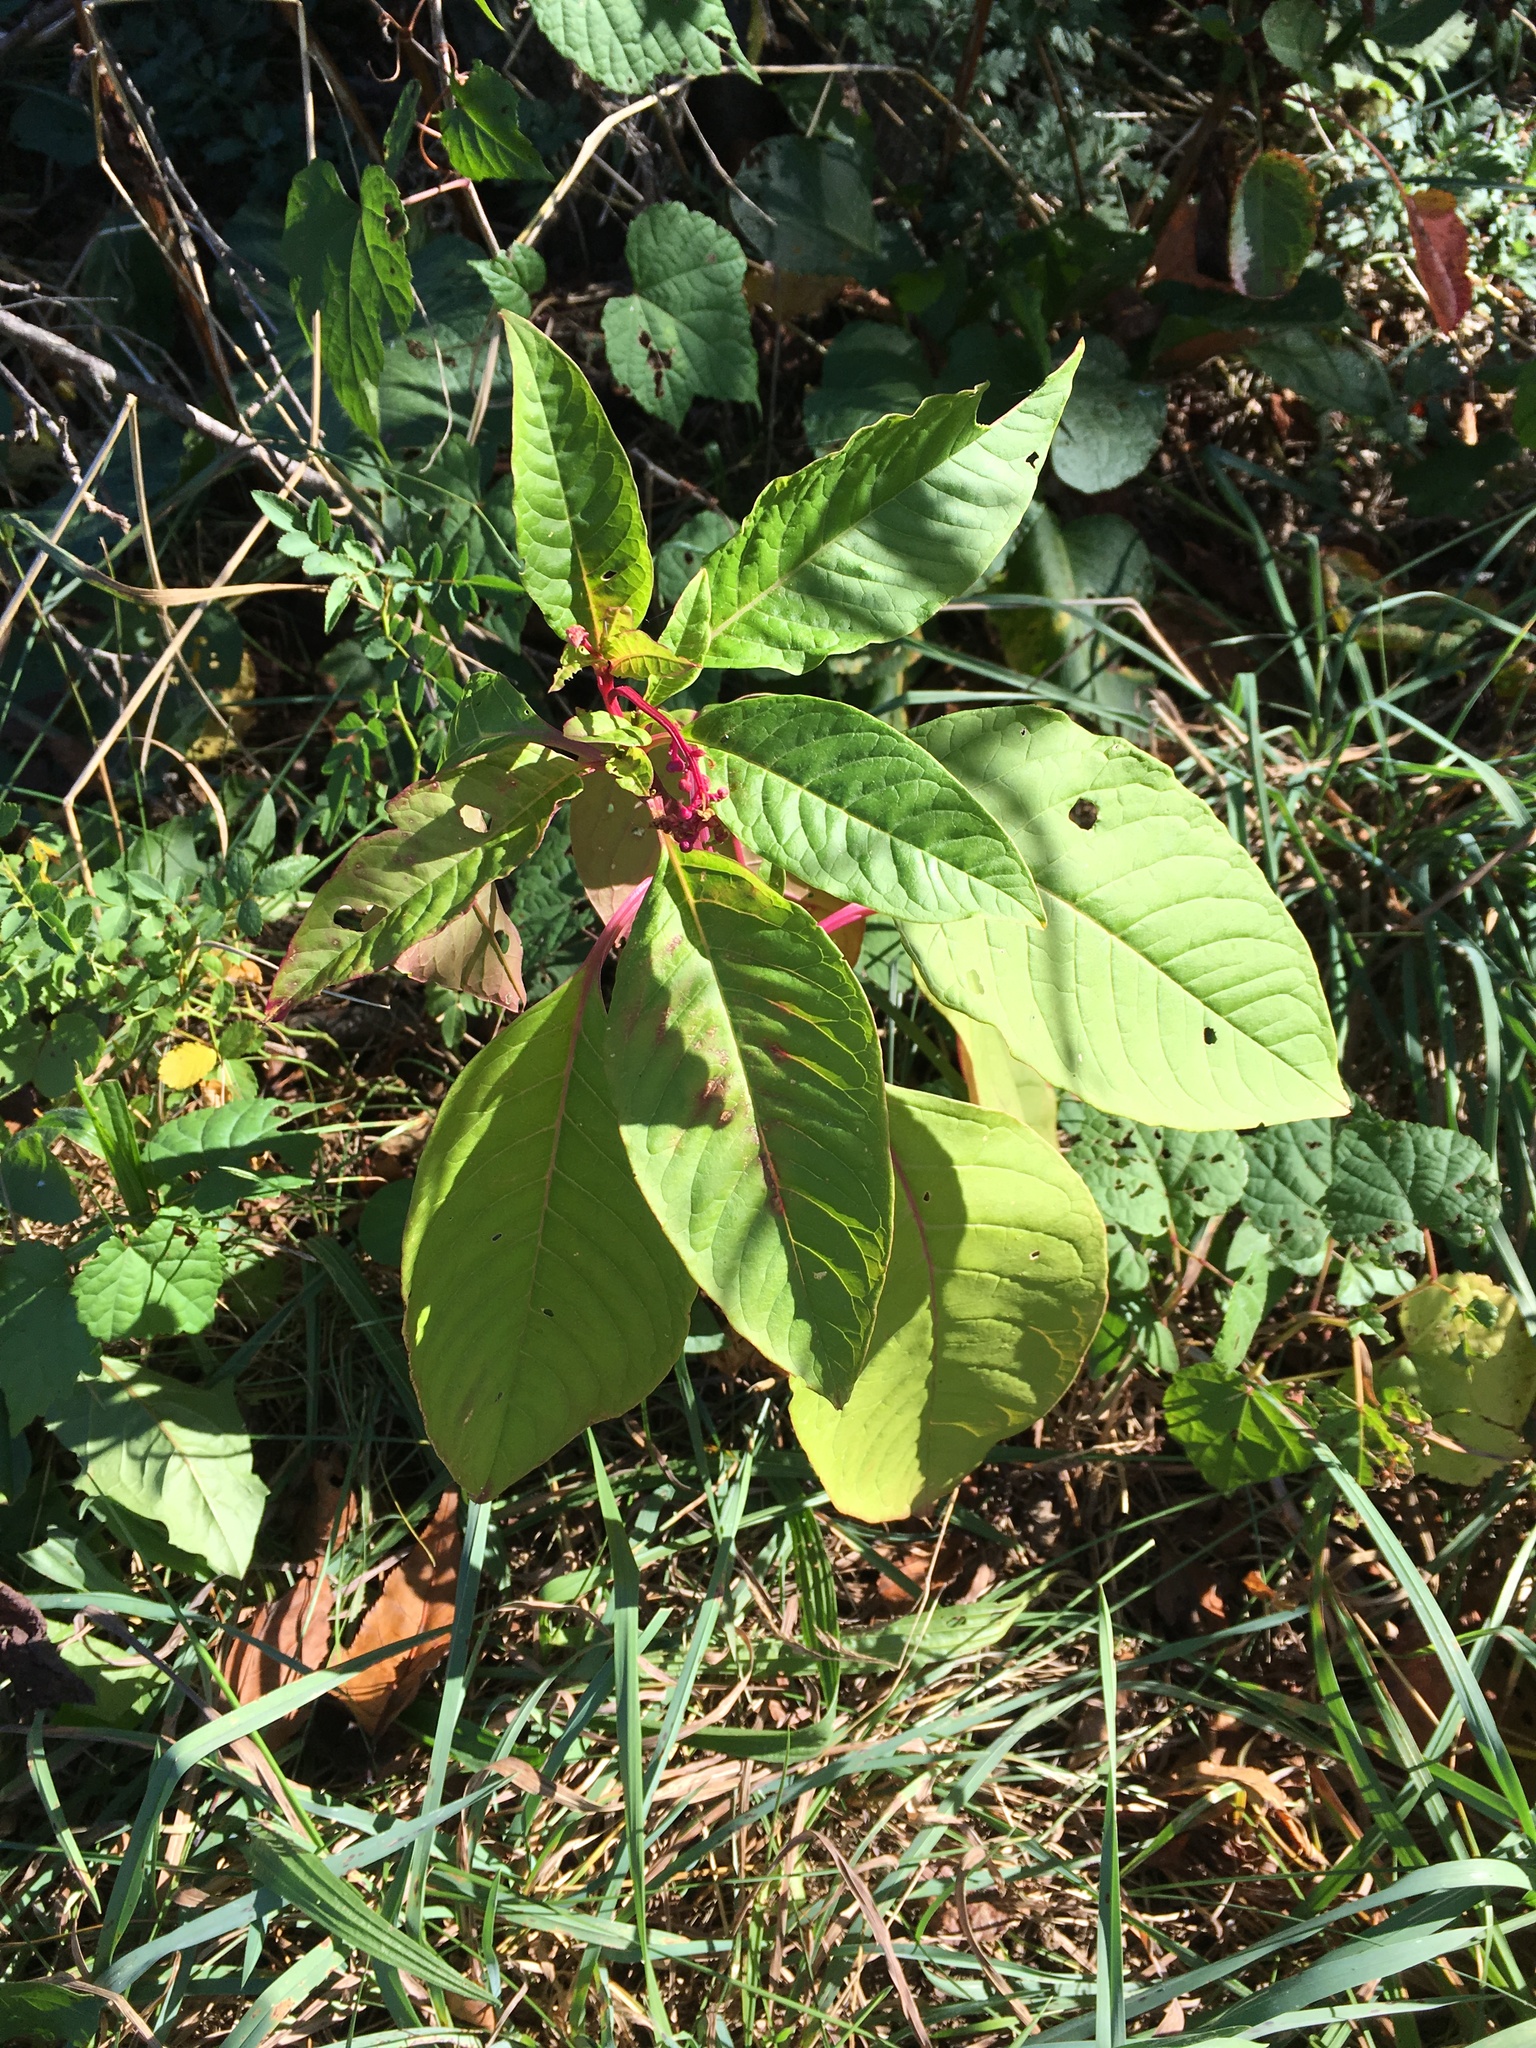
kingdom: Plantae
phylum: Tracheophyta
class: Magnoliopsida
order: Caryophyllales
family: Phytolaccaceae
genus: Phytolacca
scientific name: Phytolacca americana
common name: American pokeweed
